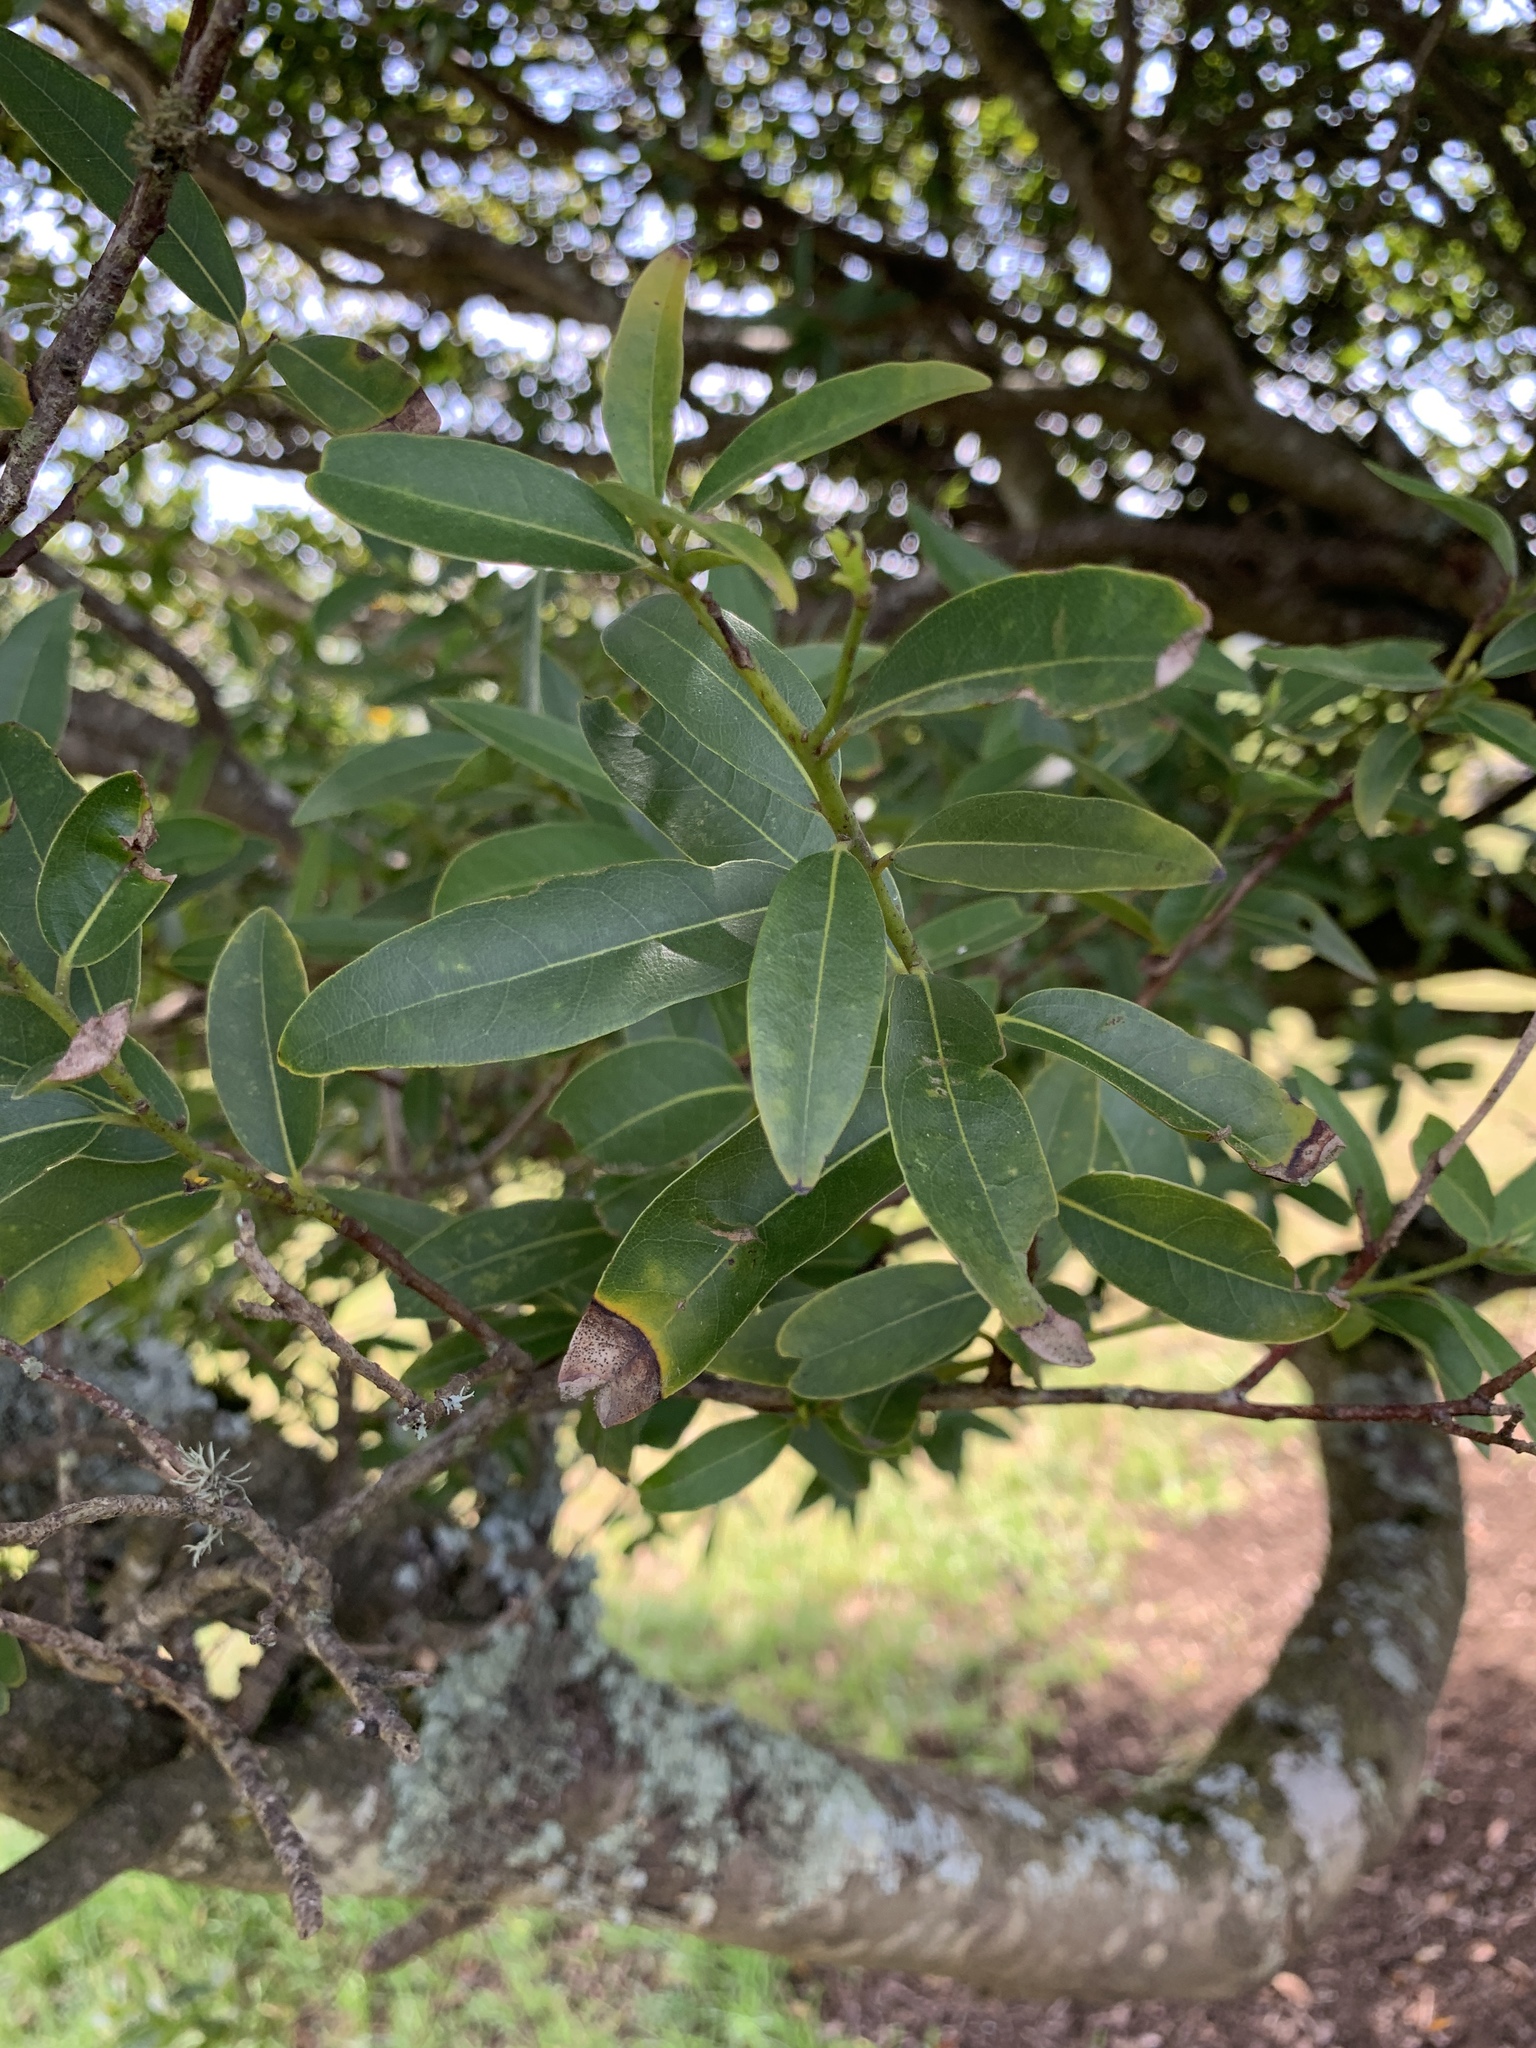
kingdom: Plantae
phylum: Tracheophyta
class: Magnoliopsida
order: Laurales
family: Lauraceae
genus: Umbellularia
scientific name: Umbellularia californica
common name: California bay
